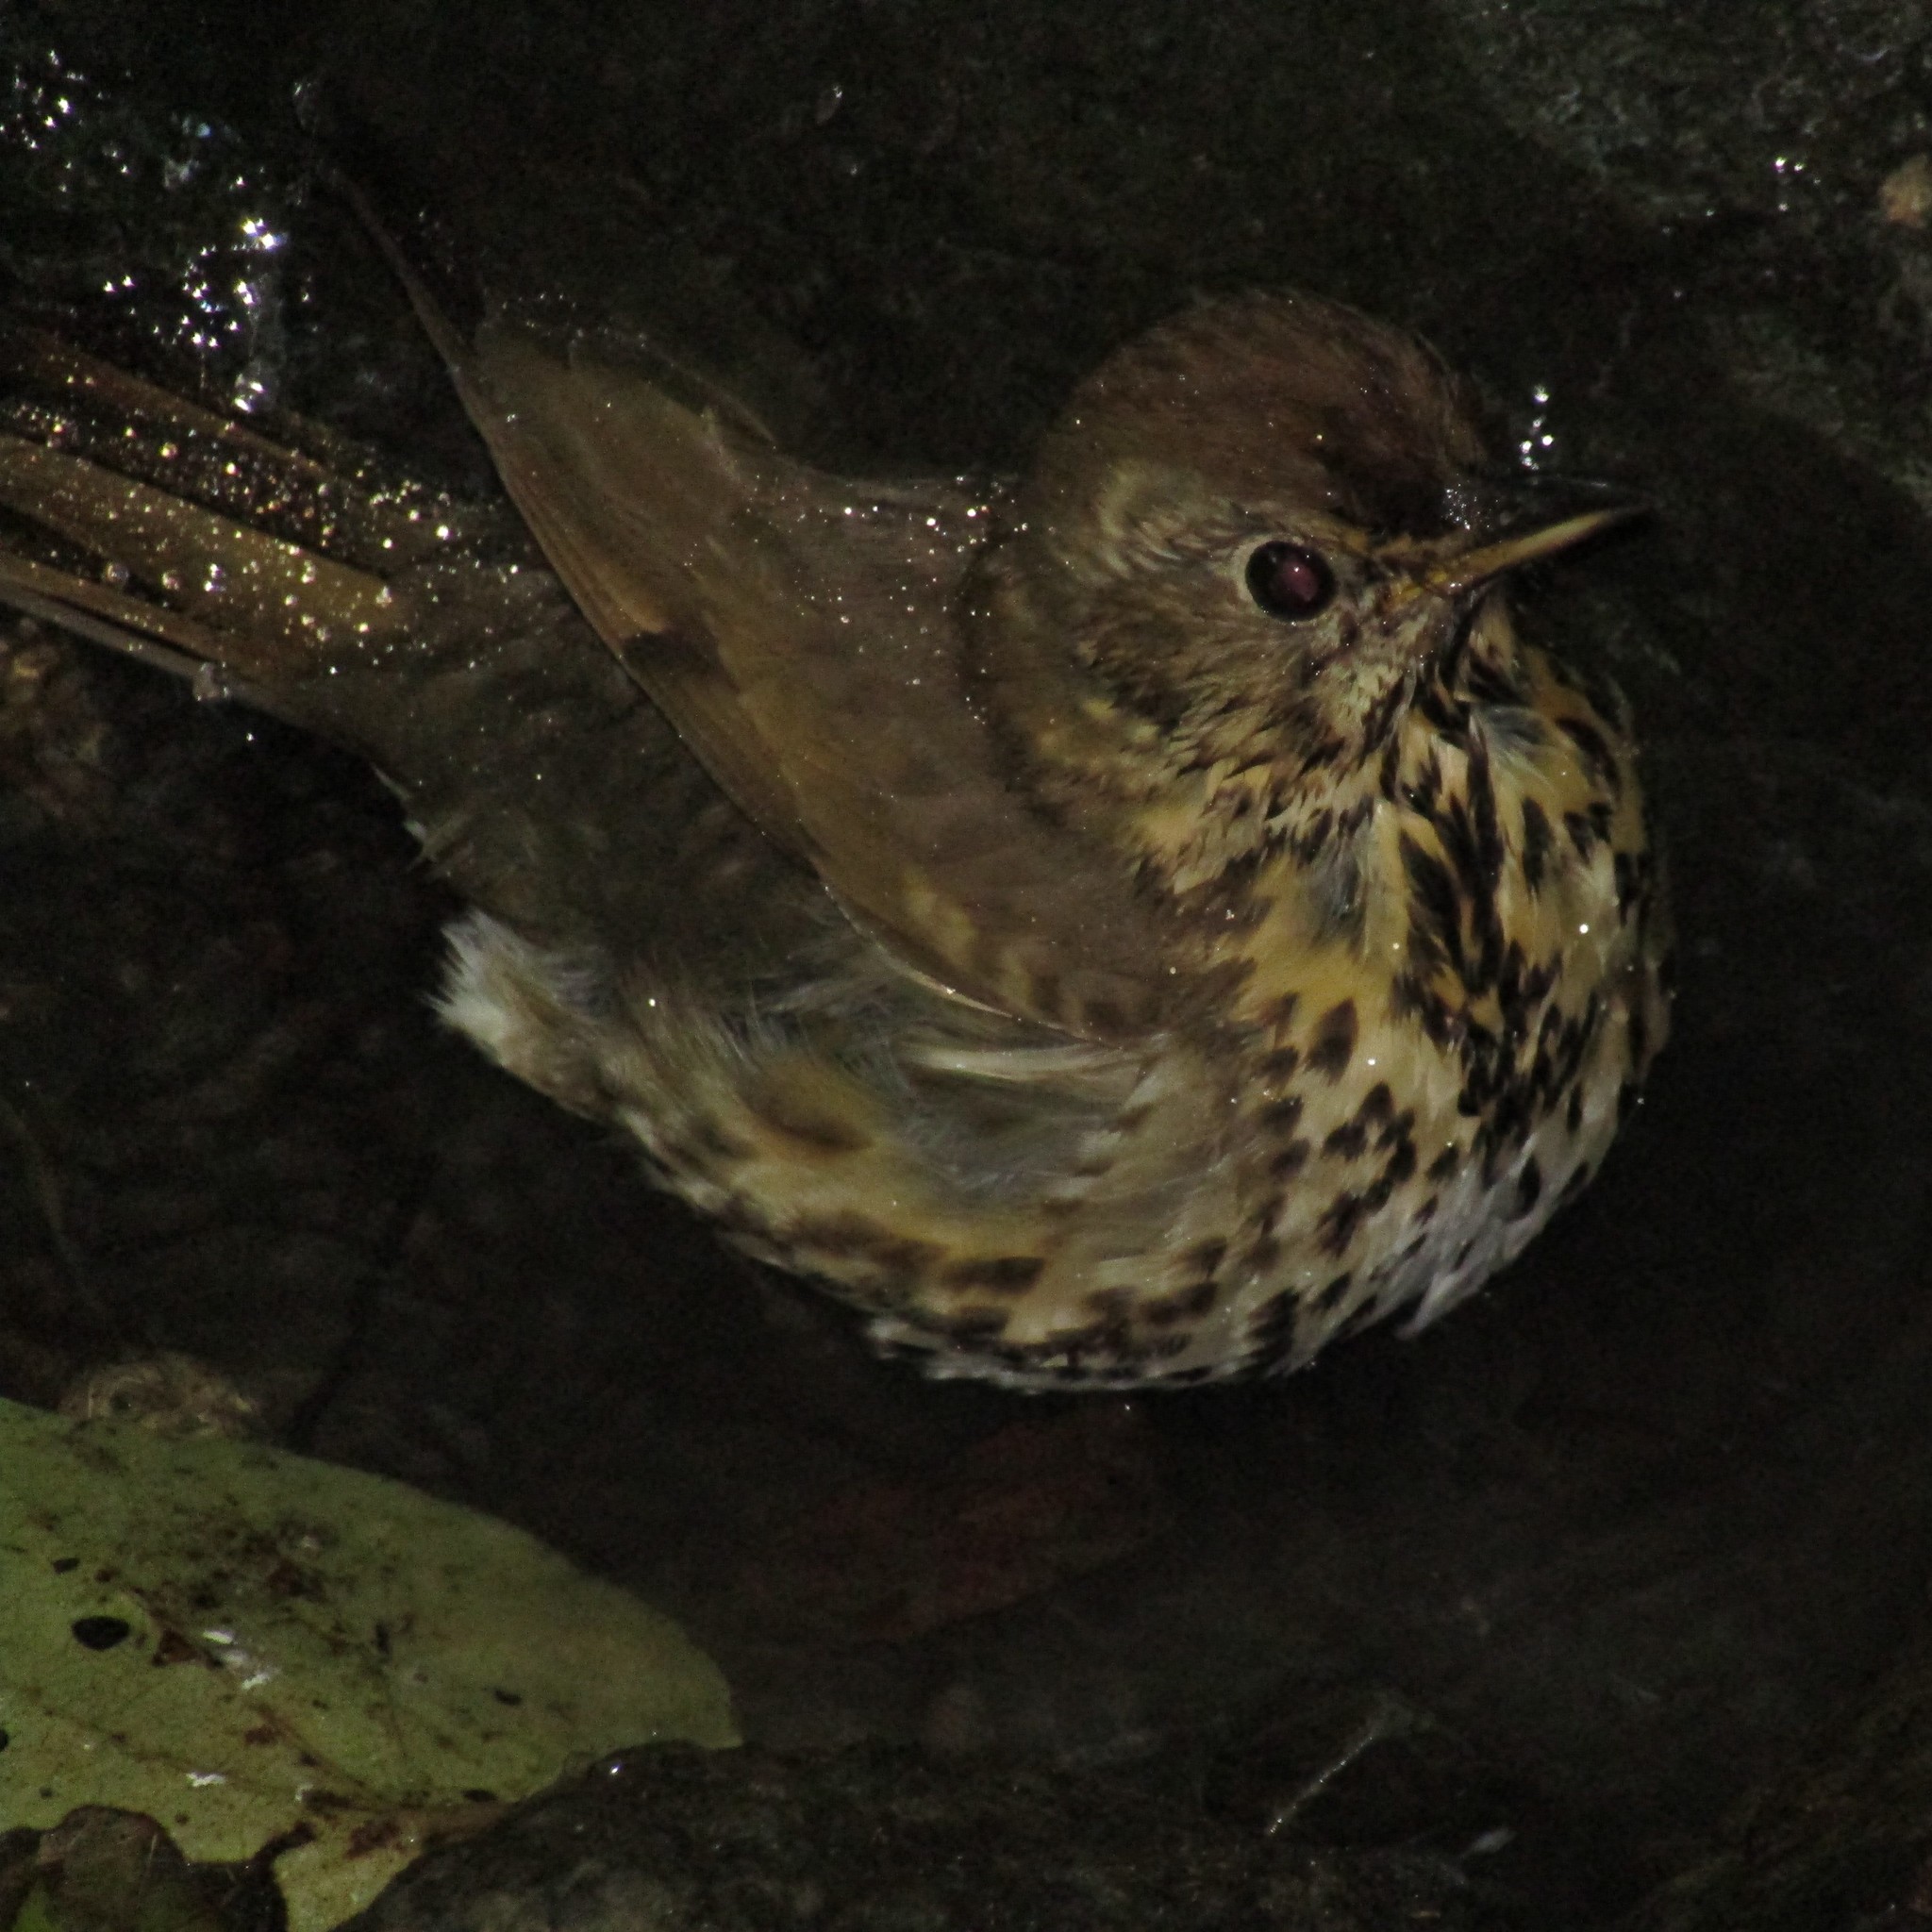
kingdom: Animalia
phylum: Chordata
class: Aves
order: Passeriformes
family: Turdidae
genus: Turdus
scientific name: Turdus philomelos
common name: Song thrush
